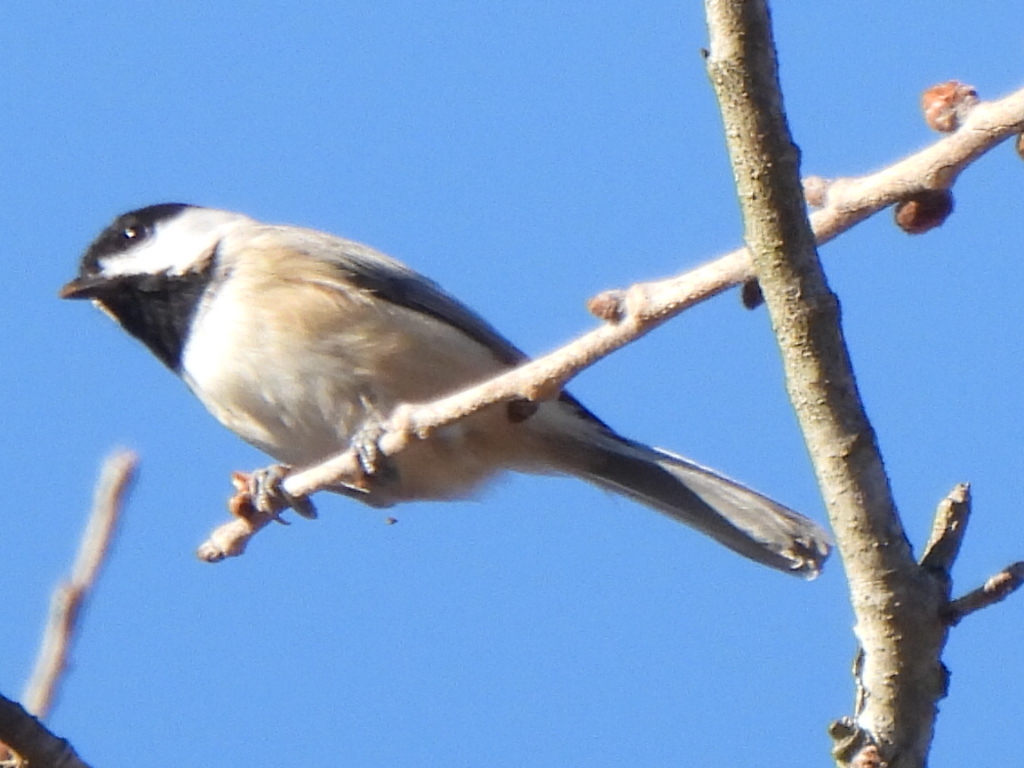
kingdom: Animalia
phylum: Chordata
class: Aves
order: Passeriformes
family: Paridae
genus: Poecile
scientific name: Poecile carolinensis
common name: Carolina chickadee
